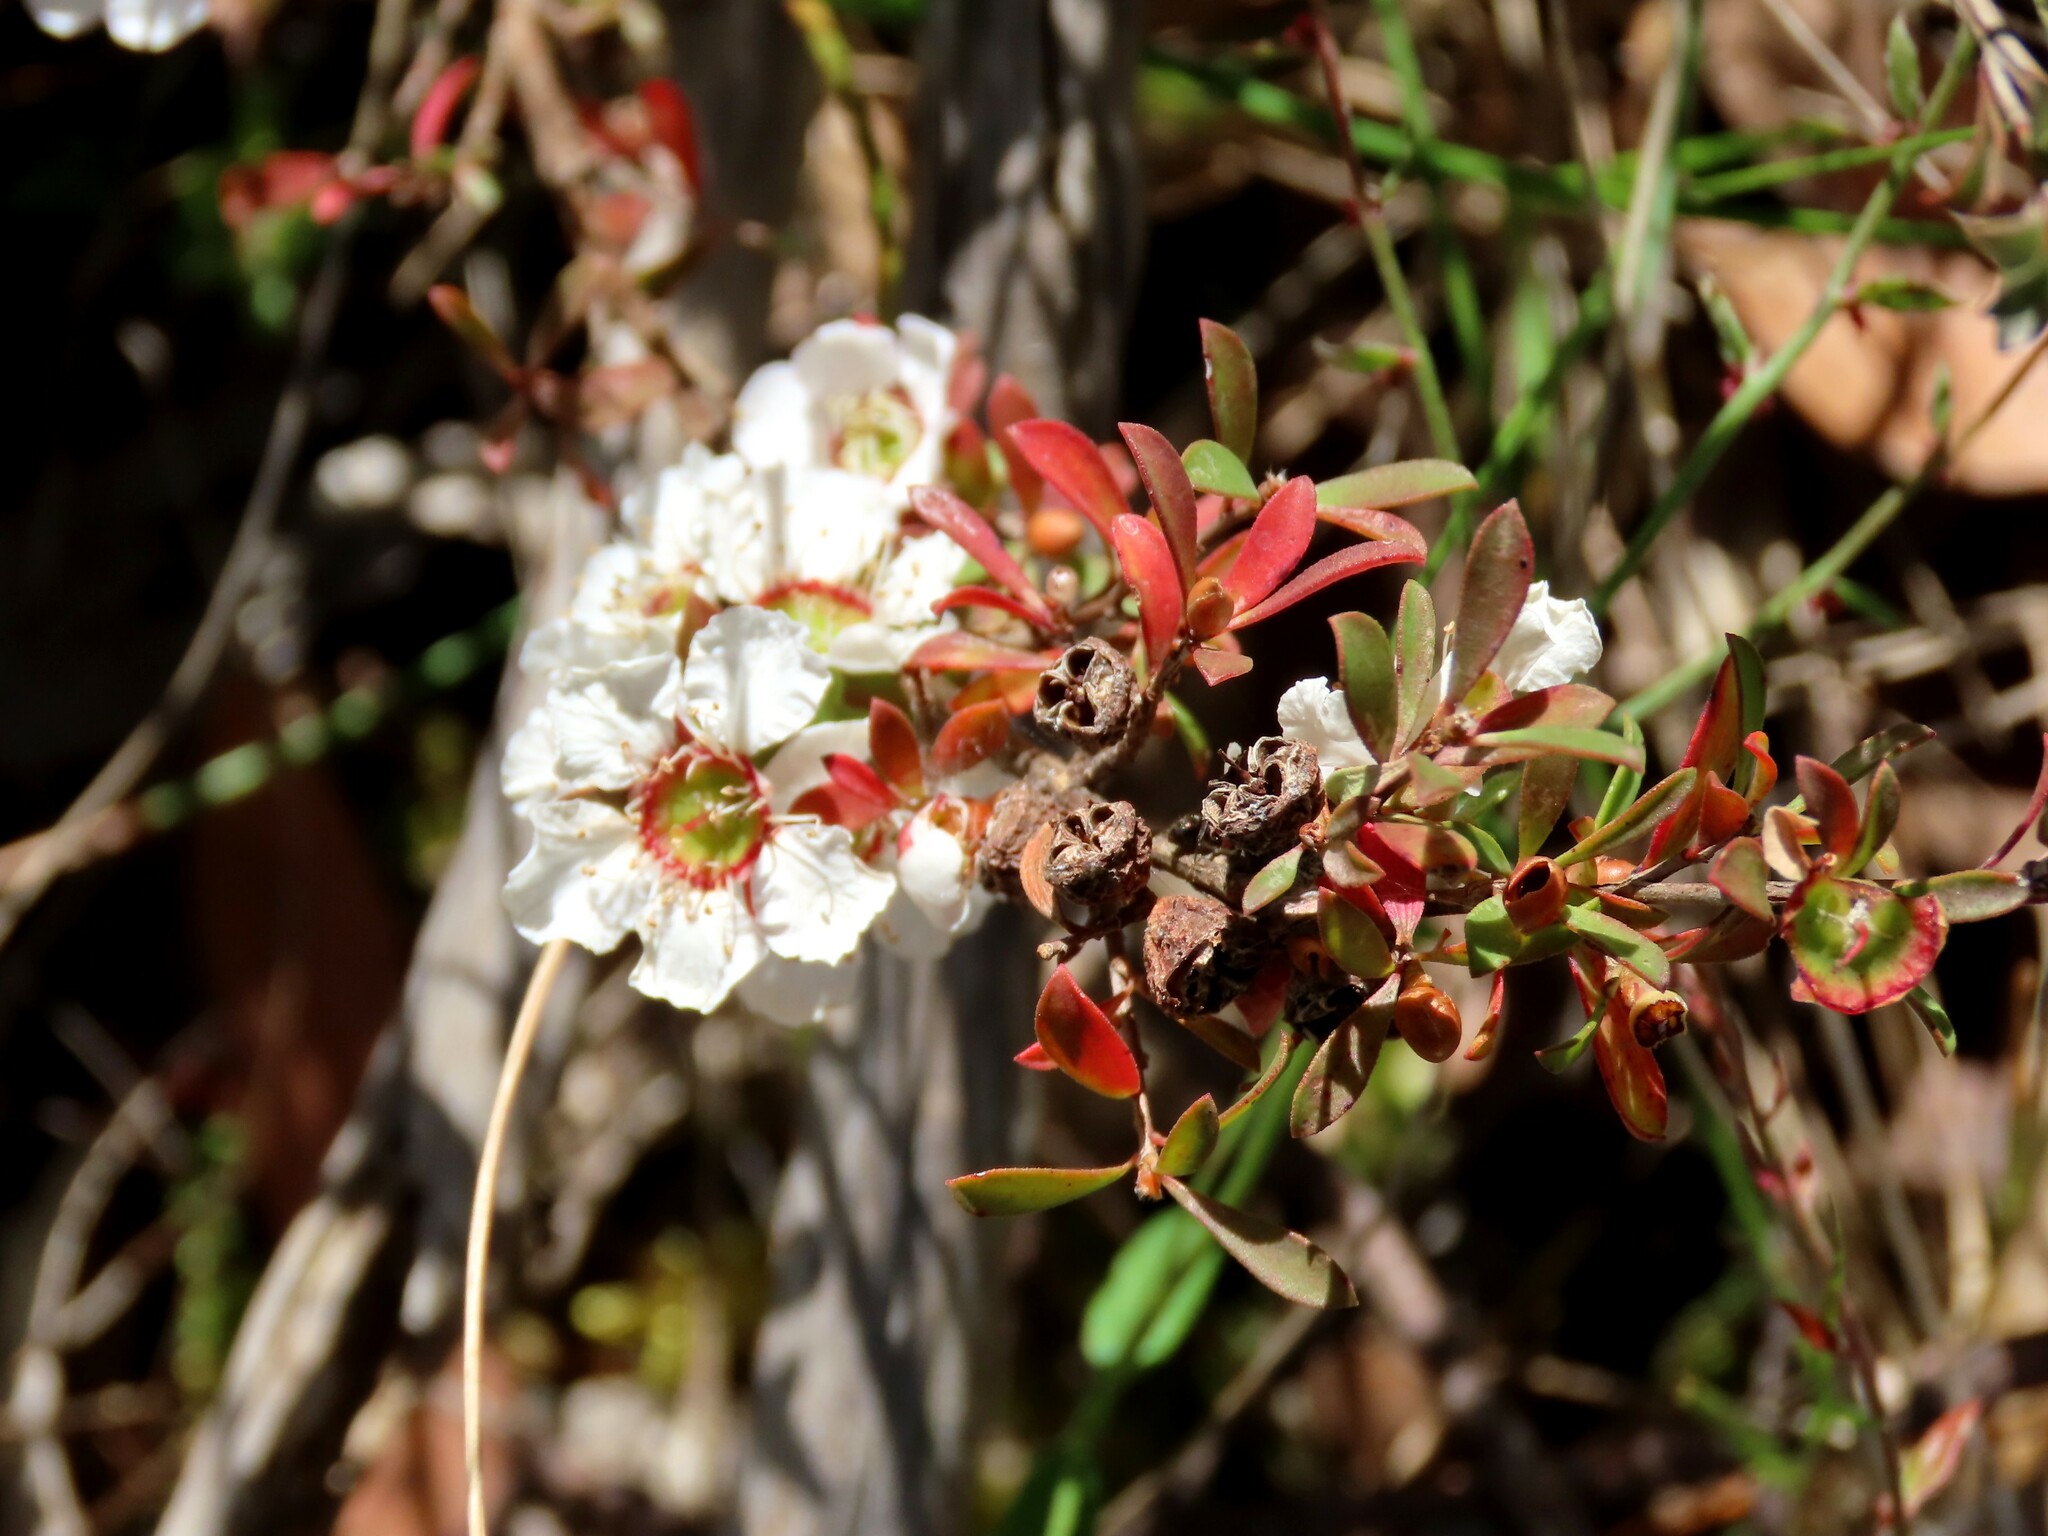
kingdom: Plantae
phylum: Tracheophyta
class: Magnoliopsida
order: Myrtales
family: Myrtaceae
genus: Leptospermum
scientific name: Leptospermum myrsinoides
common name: Heath teatree
